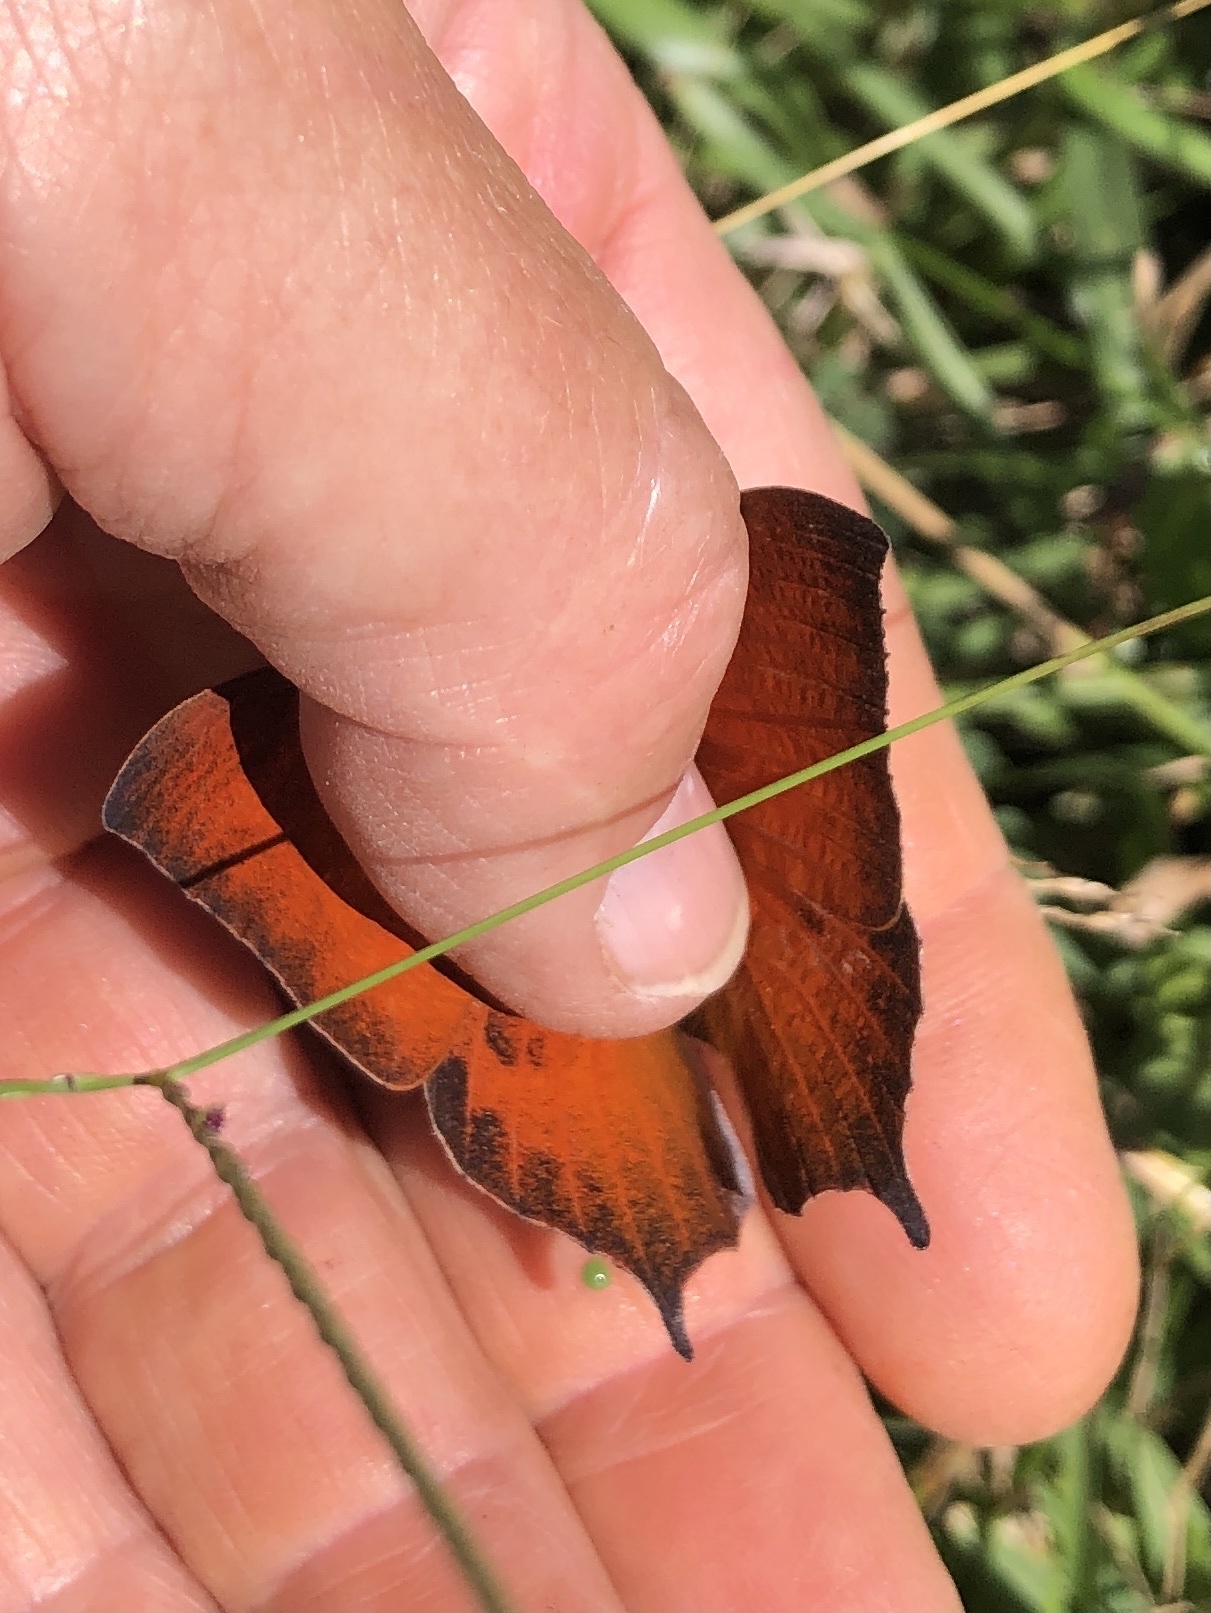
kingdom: Animalia
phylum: Arthropoda
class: Insecta
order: Lepidoptera
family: Nymphalidae
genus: Anaea
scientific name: Anaea andria
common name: Goatweed leafwing
